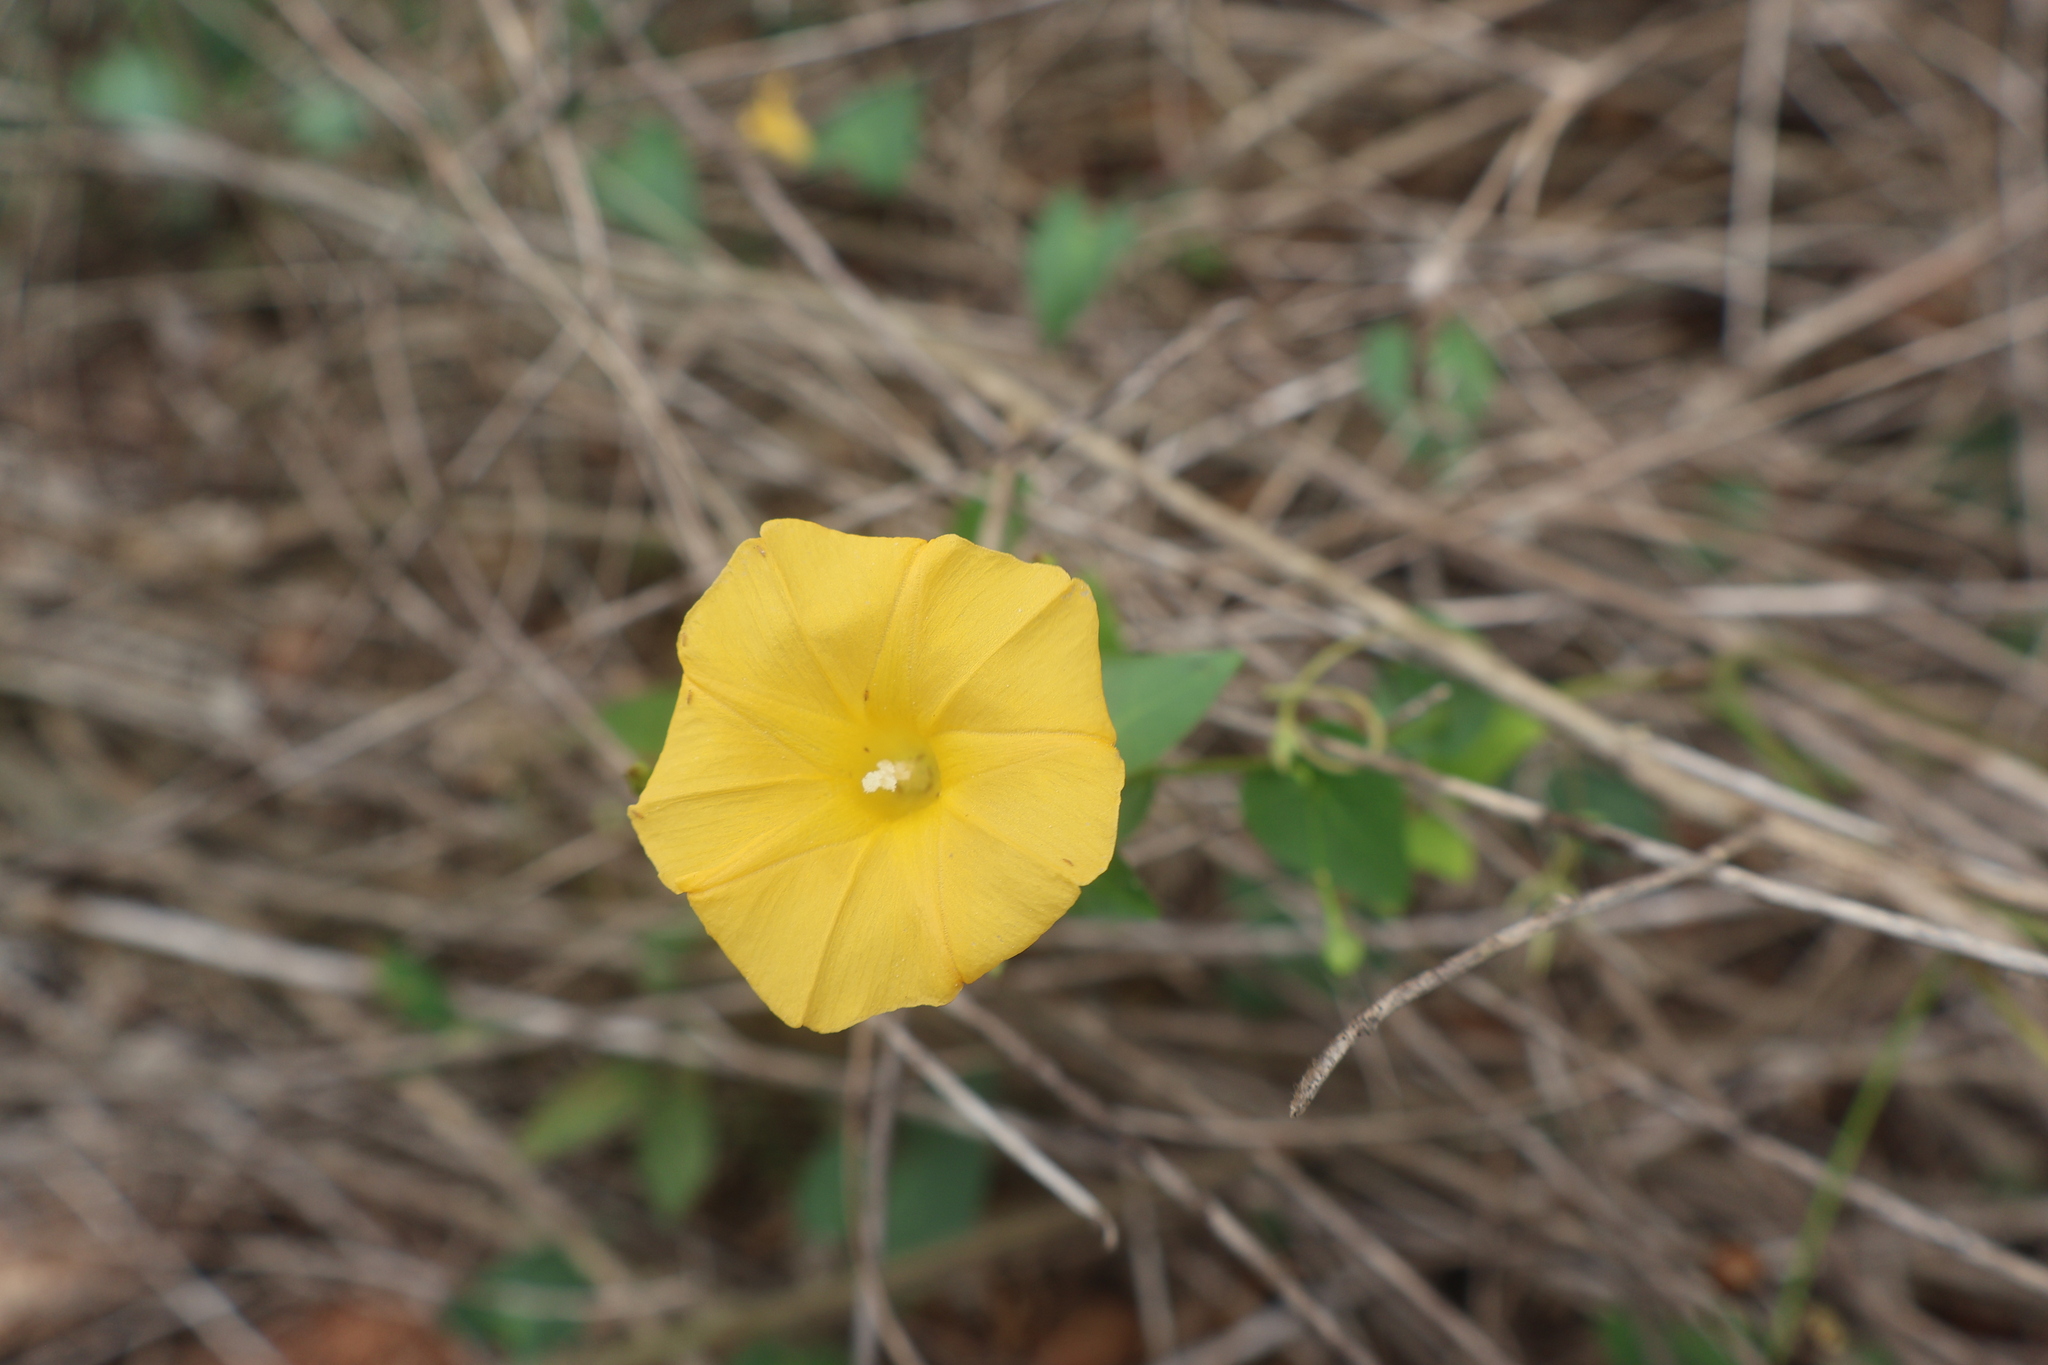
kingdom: Plantae
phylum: Tracheophyta
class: Magnoliopsida
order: Solanales
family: Convolvulaceae
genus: Ipomoea
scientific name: Ipomoea microsepala
